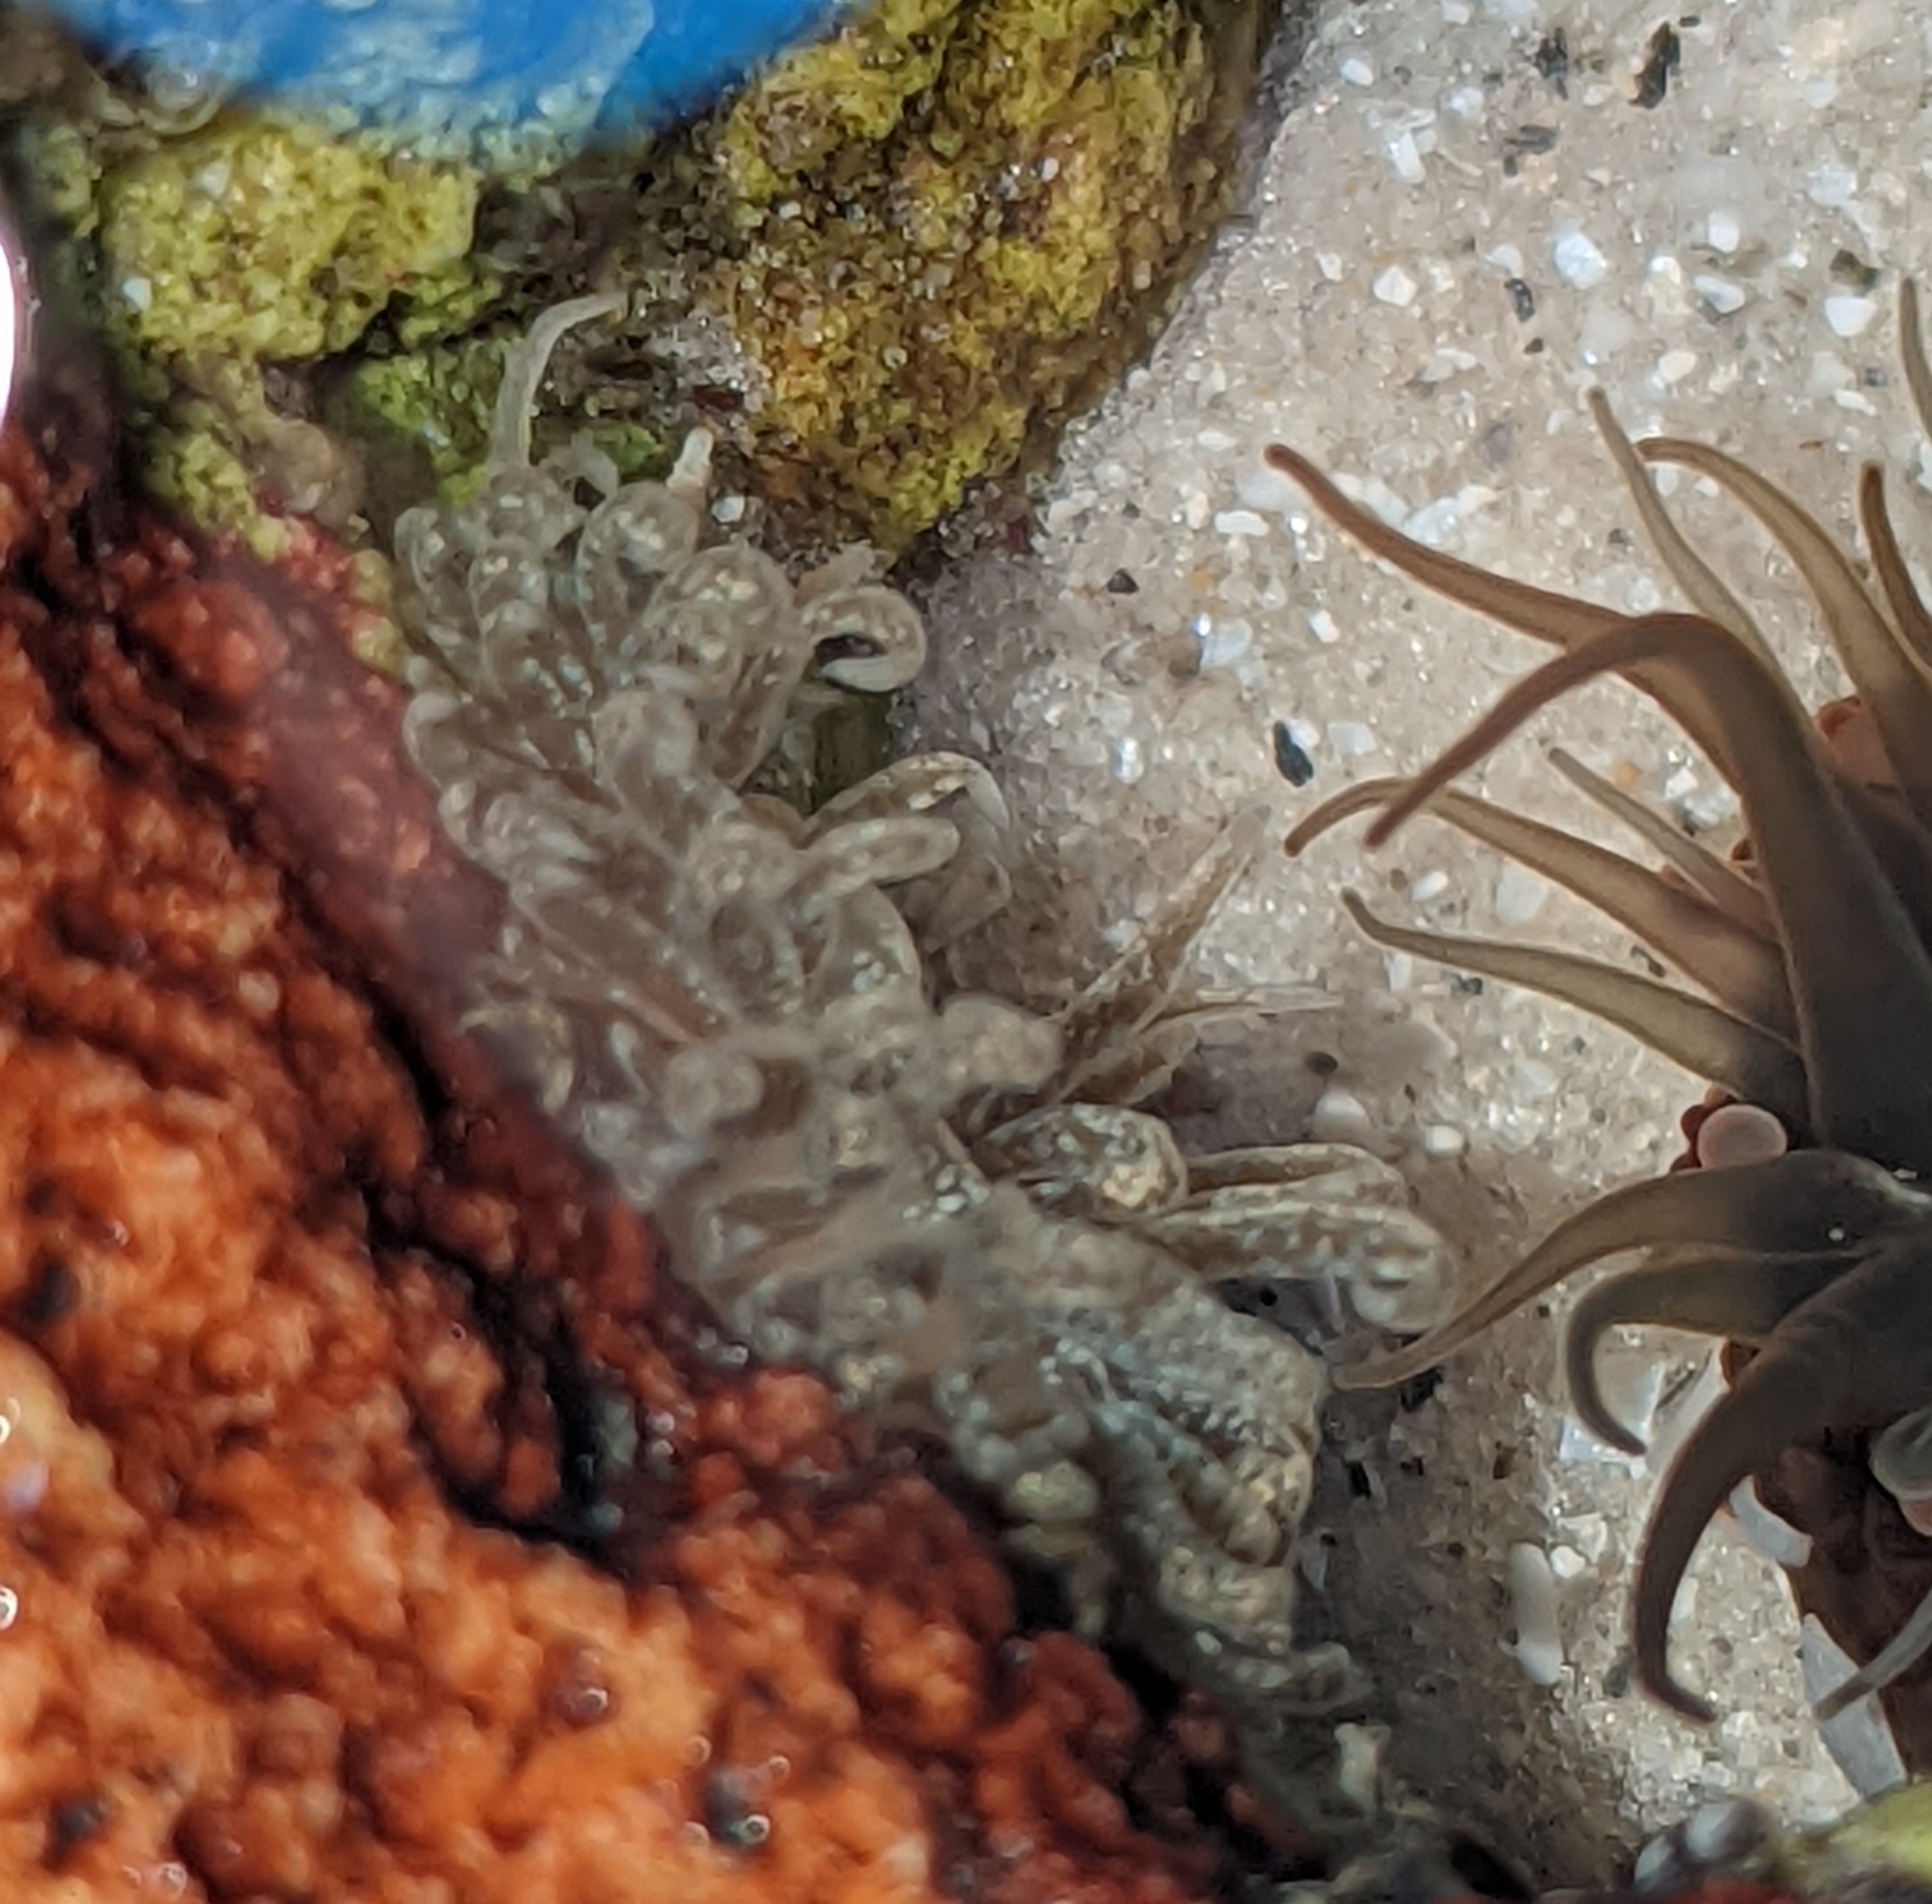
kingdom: Animalia
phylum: Mollusca
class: Gastropoda
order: Nudibranchia
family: Aeolidiidae
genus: Spurilla
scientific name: Spurilla braziliana
